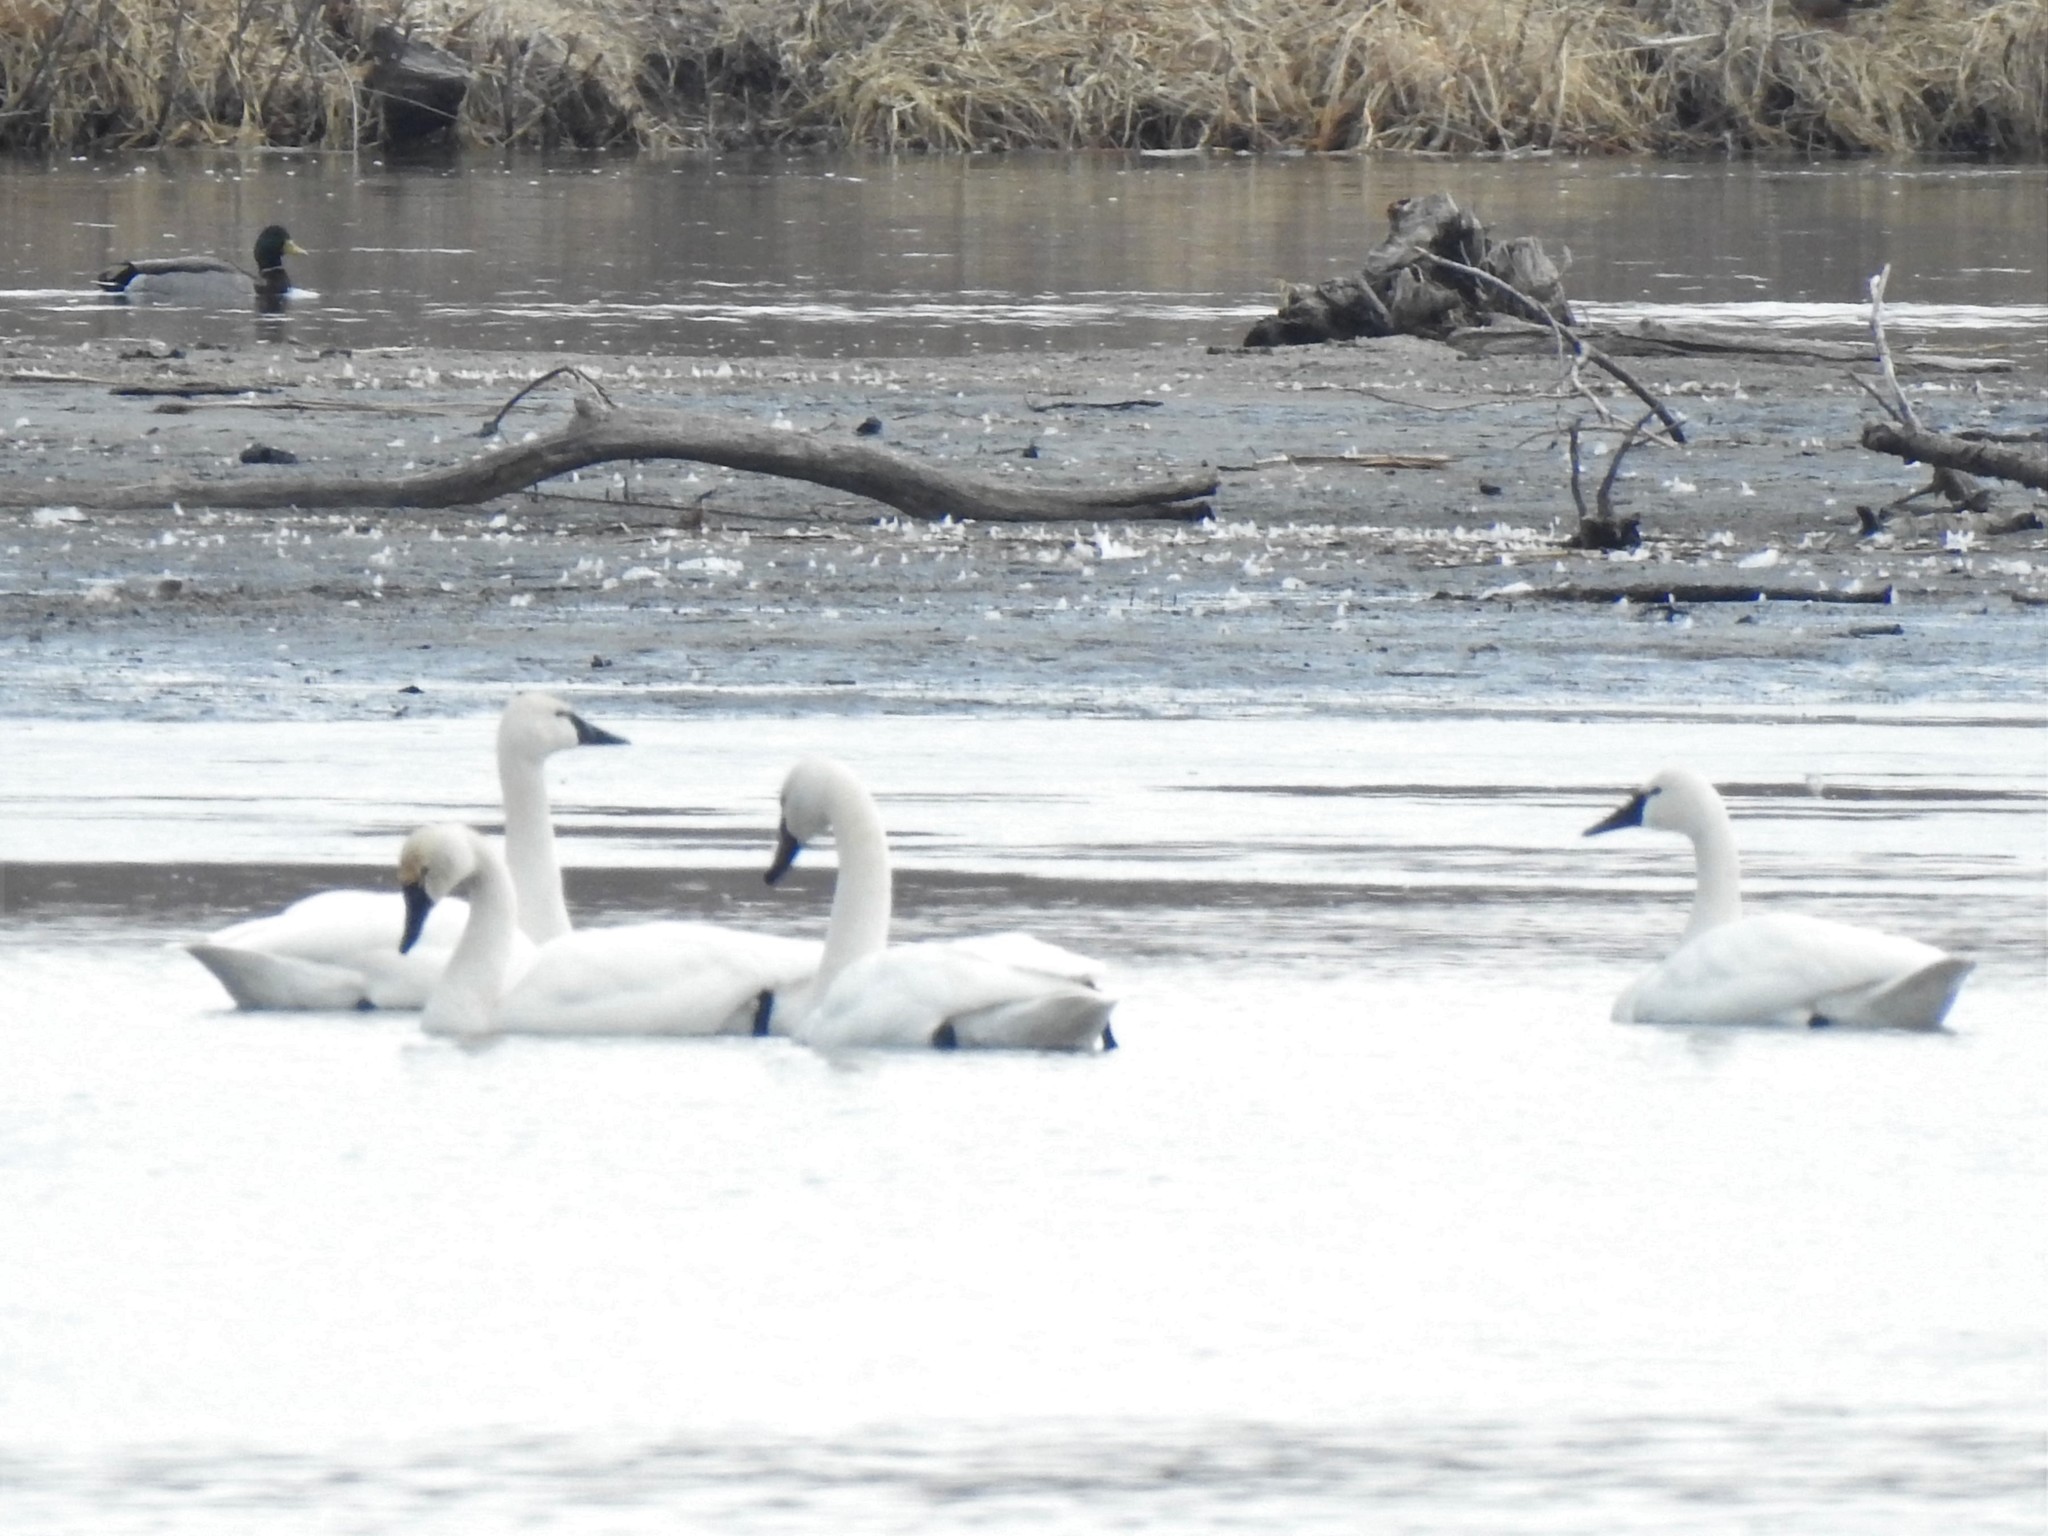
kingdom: Animalia
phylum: Chordata
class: Aves
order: Anseriformes
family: Anatidae
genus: Cygnus
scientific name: Cygnus columbianus
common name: Tundra swan
